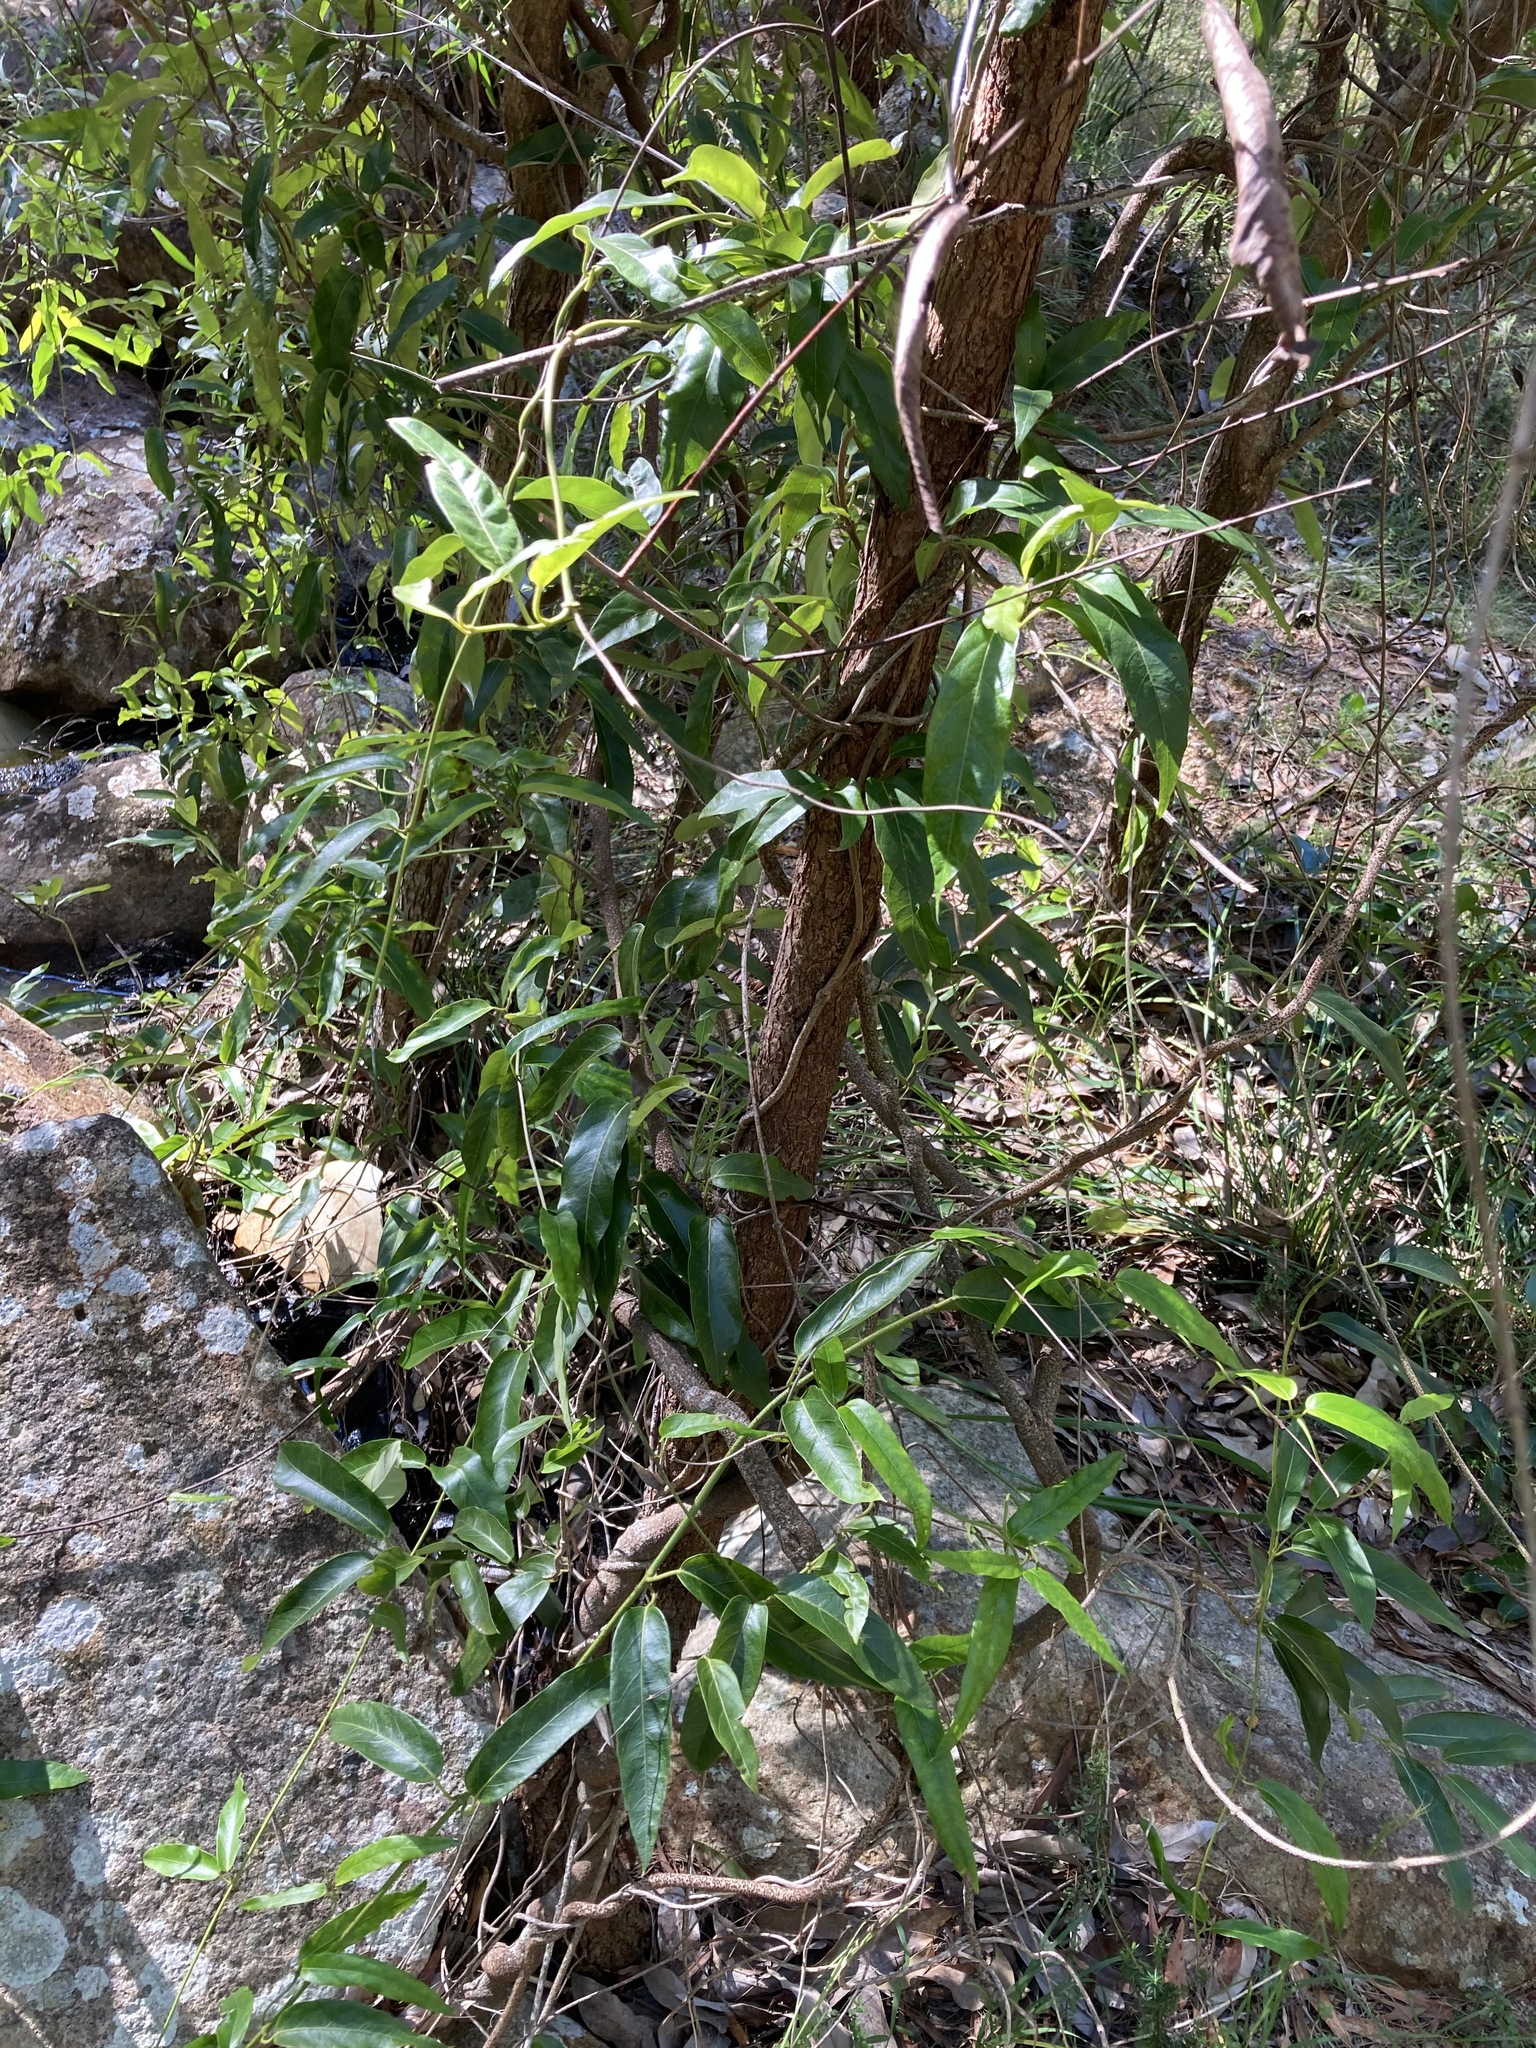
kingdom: Plantae
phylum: Tracheophyta
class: Magnoliopsida
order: Gentianales
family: Apocynaceae
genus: Parsonsia
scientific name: Parsonsia straminea
